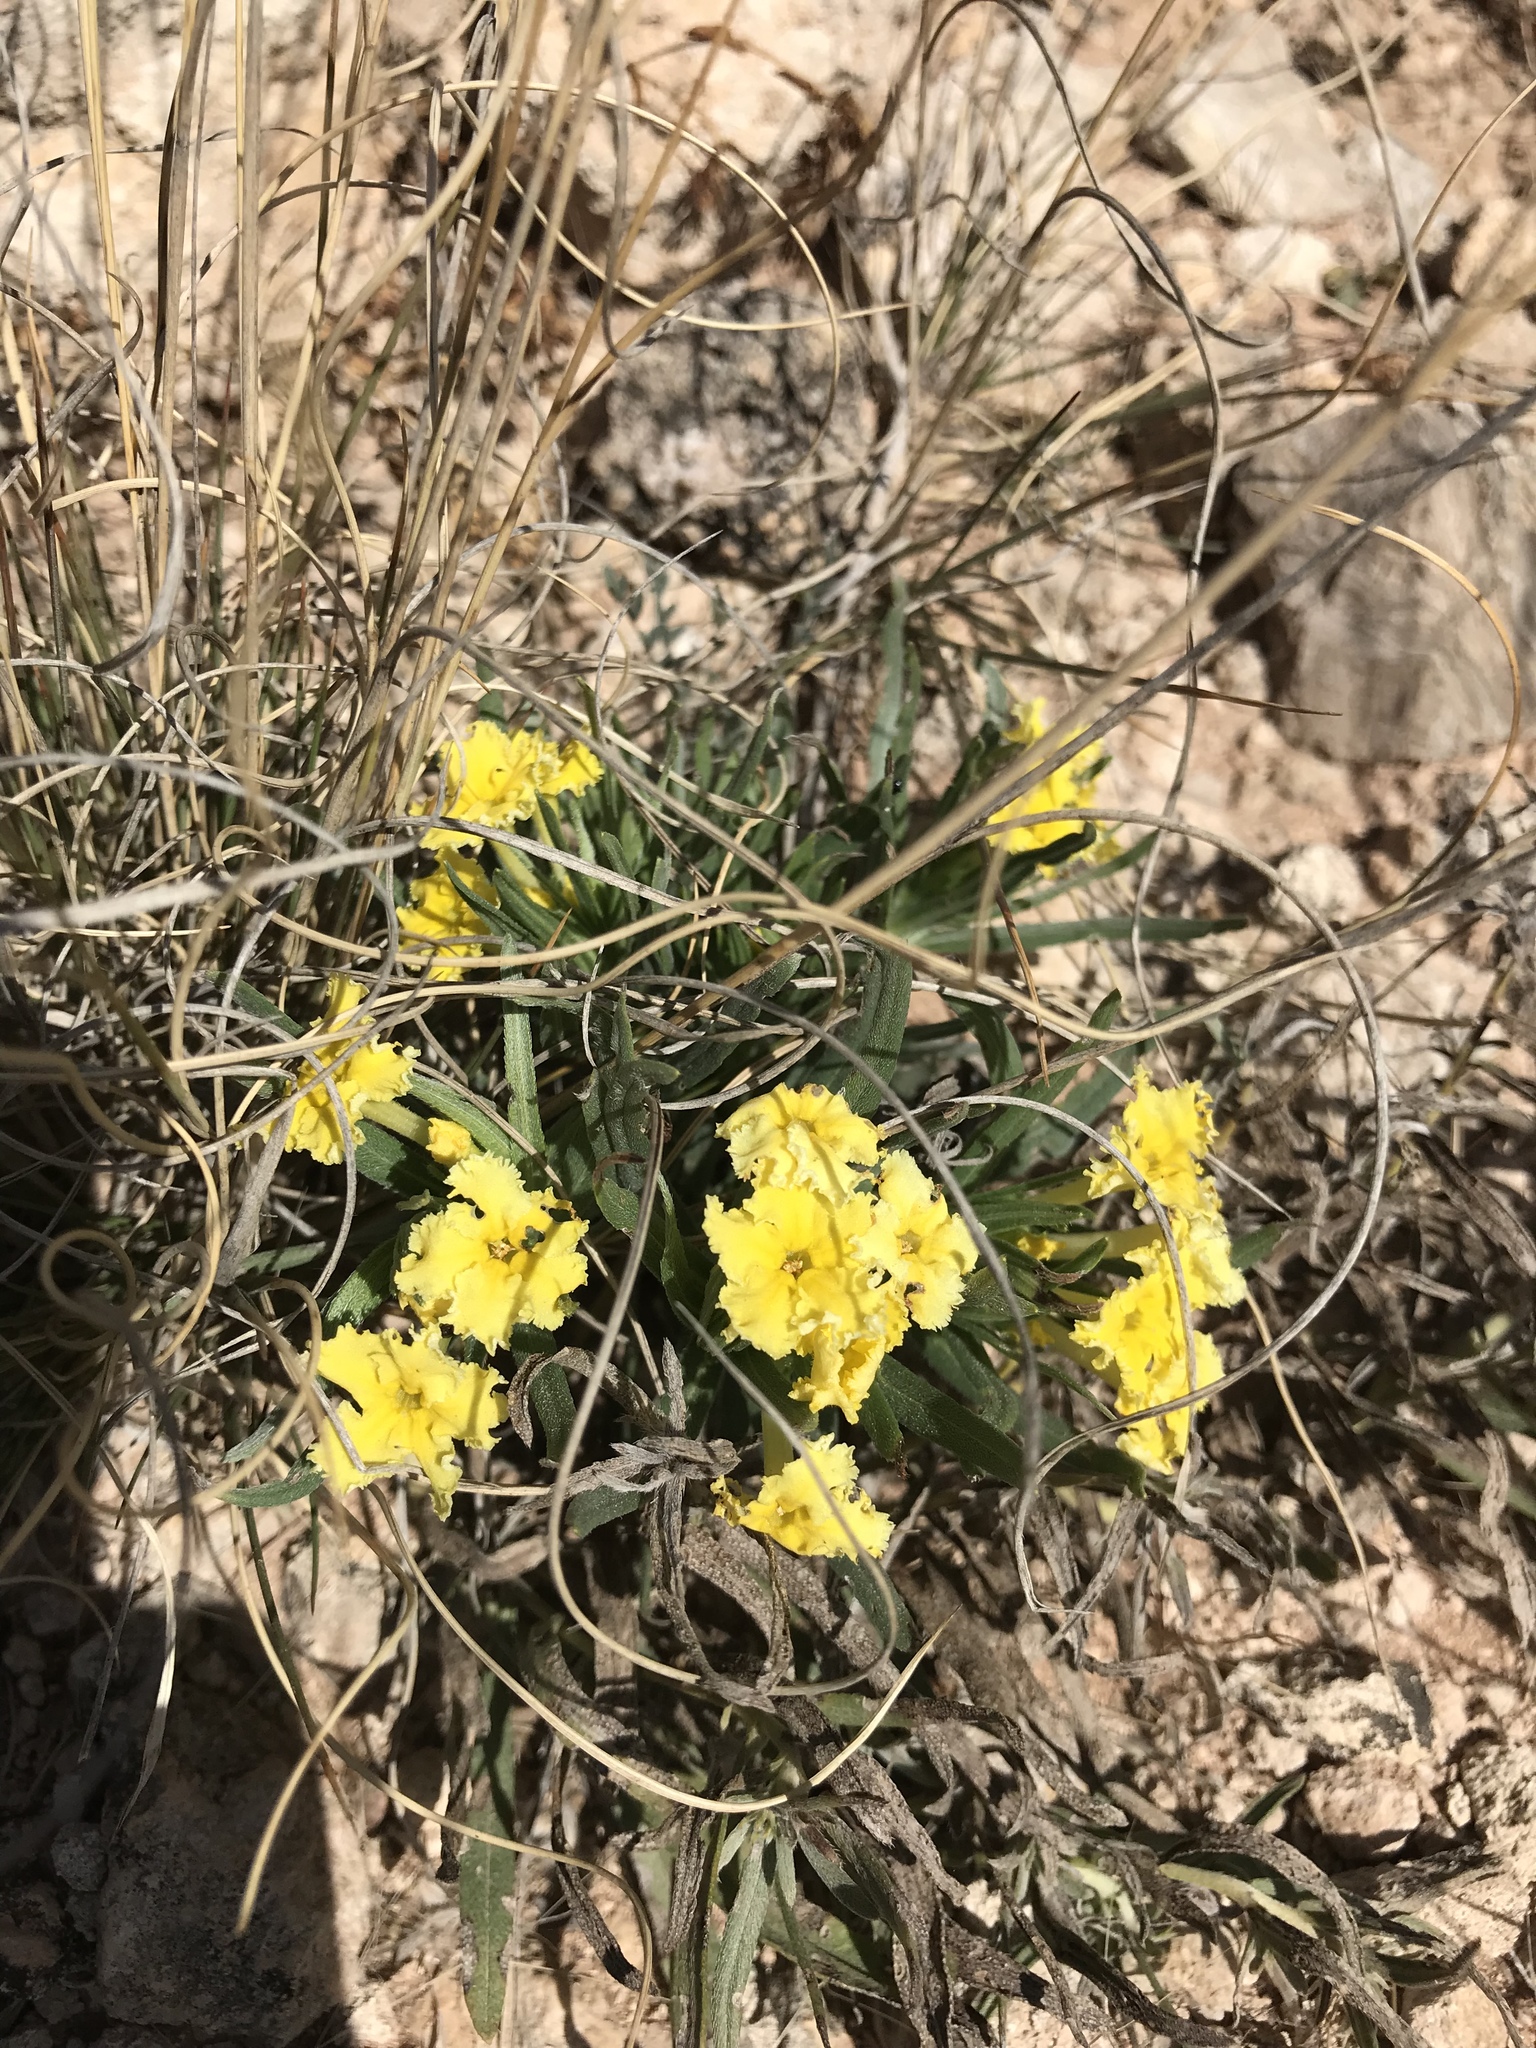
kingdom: Plantae
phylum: Tracheophyta
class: Magnoliopsida
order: Boraginales
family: Boraginaceae
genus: Lithospermum
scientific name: Lithospermum incisum
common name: Fringed gromwell
